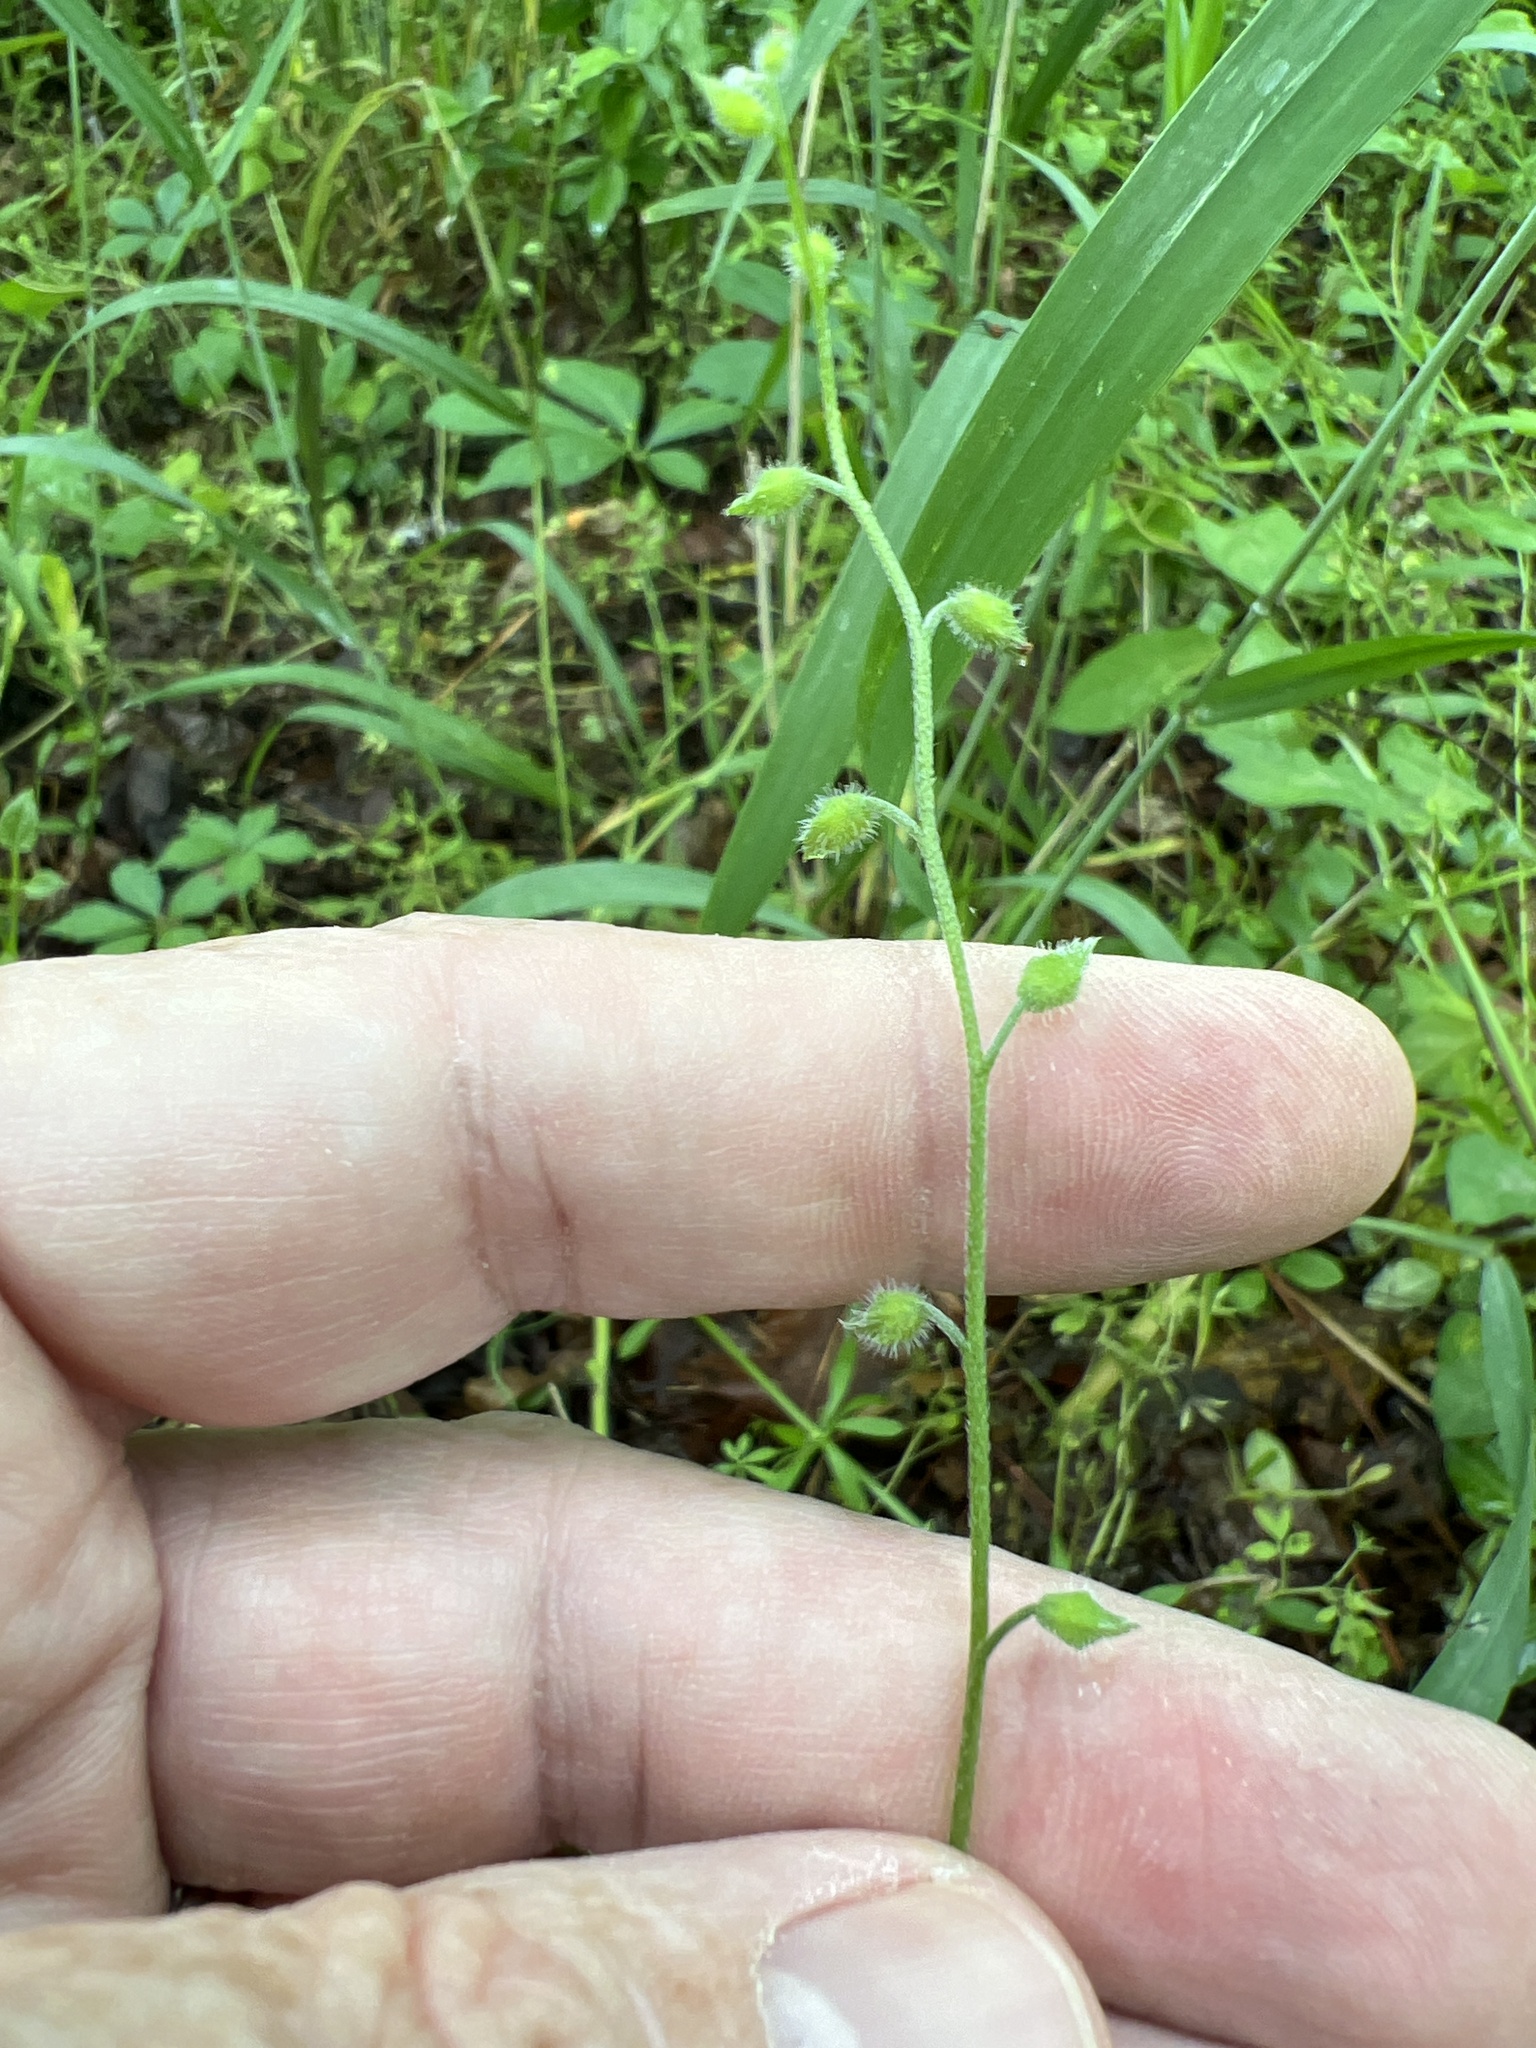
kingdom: Plantae
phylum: Tracheophyta
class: Magnoliopsida
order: Boraginales
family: Boraginaceae
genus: Myosotis
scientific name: Myosotis macrosperma
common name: Large-seed forget-me-not
